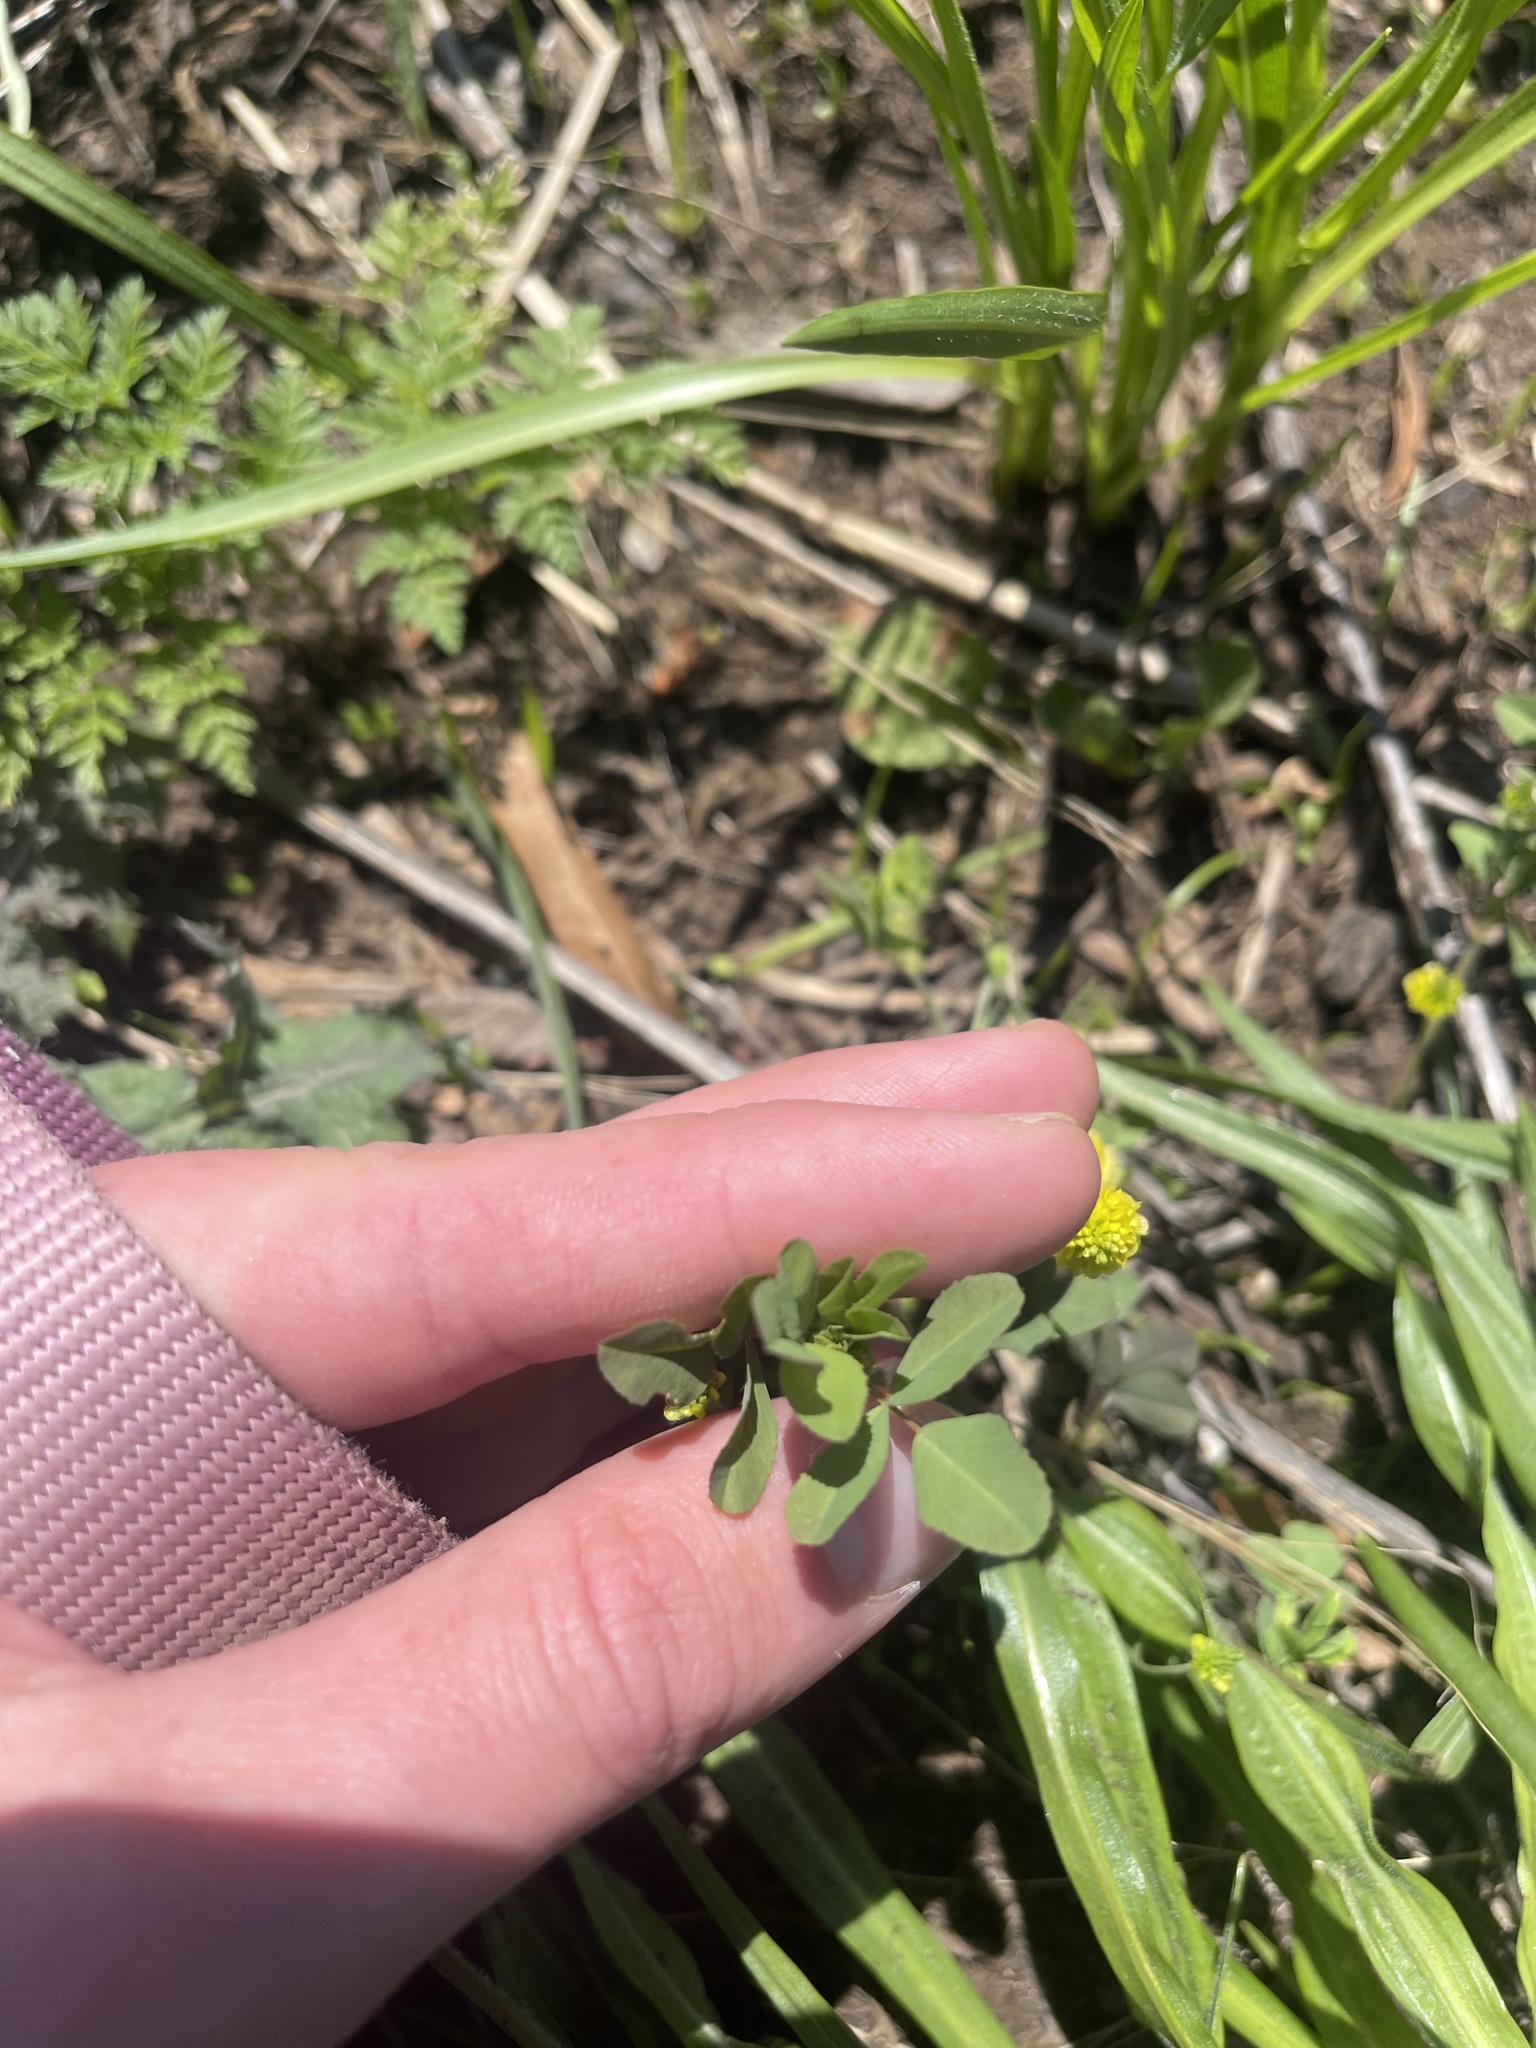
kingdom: Plantae
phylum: Tracheophyta
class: Magnoliopsida
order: Fabales
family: Fabaceae
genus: Trifolium
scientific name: Trifolium campestre
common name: Field clover
